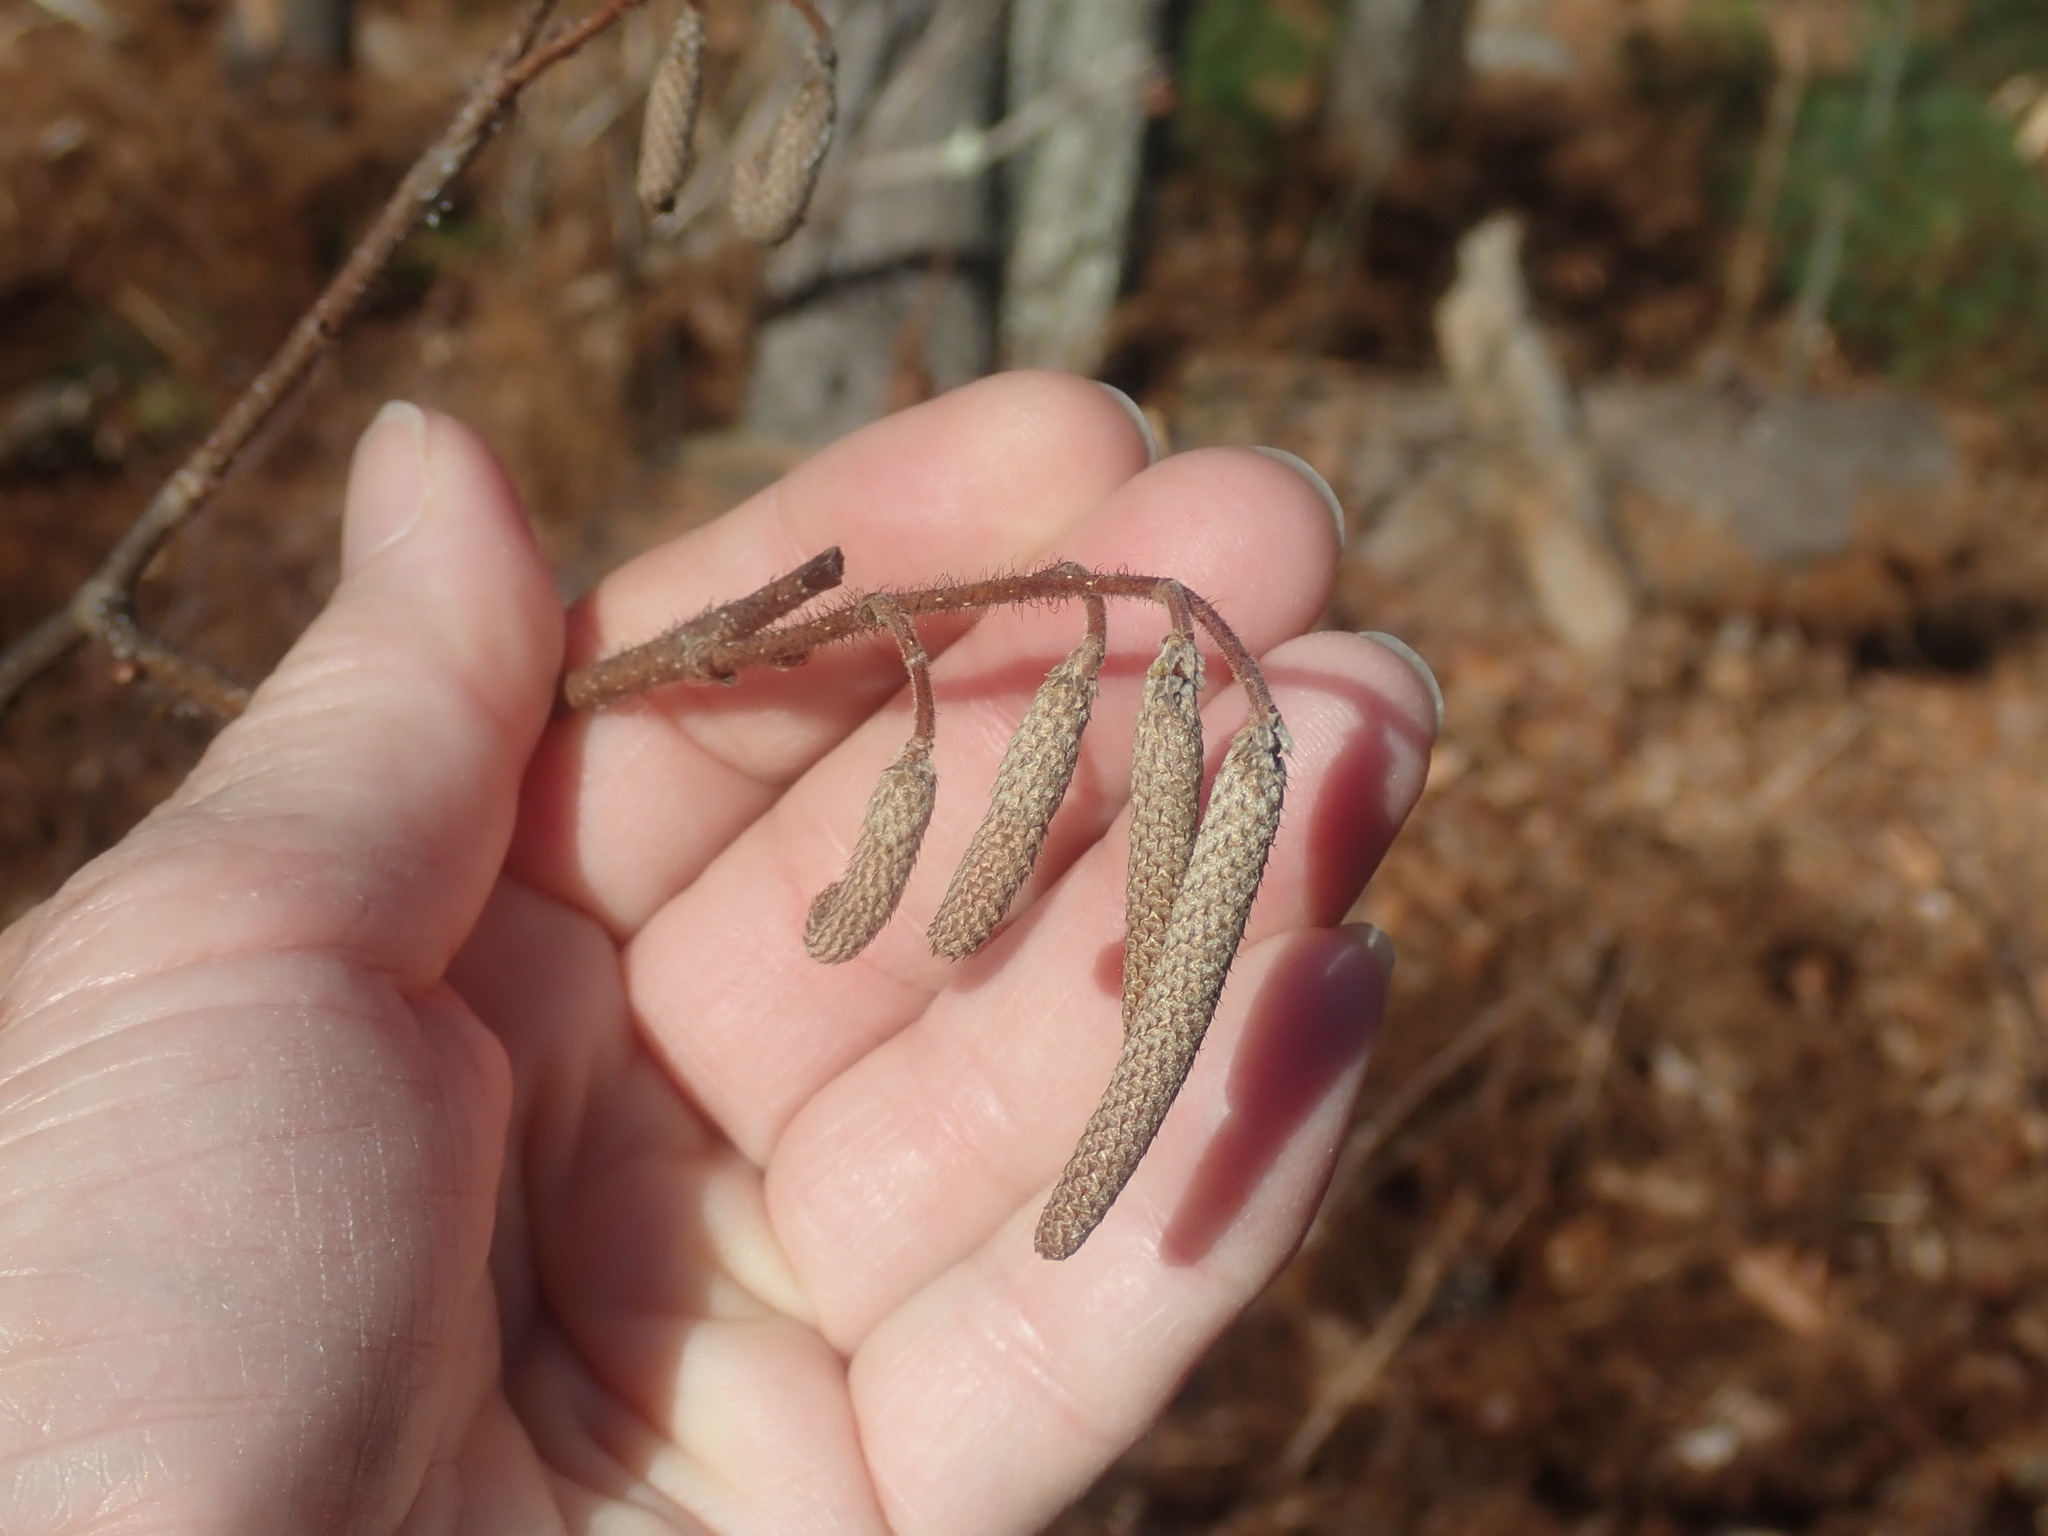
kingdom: Plantae
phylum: Tracheophyta
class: Magnoliopsida
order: Fagales
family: Betulaceae
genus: Corylus
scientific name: Corylus americana
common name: American hazel
